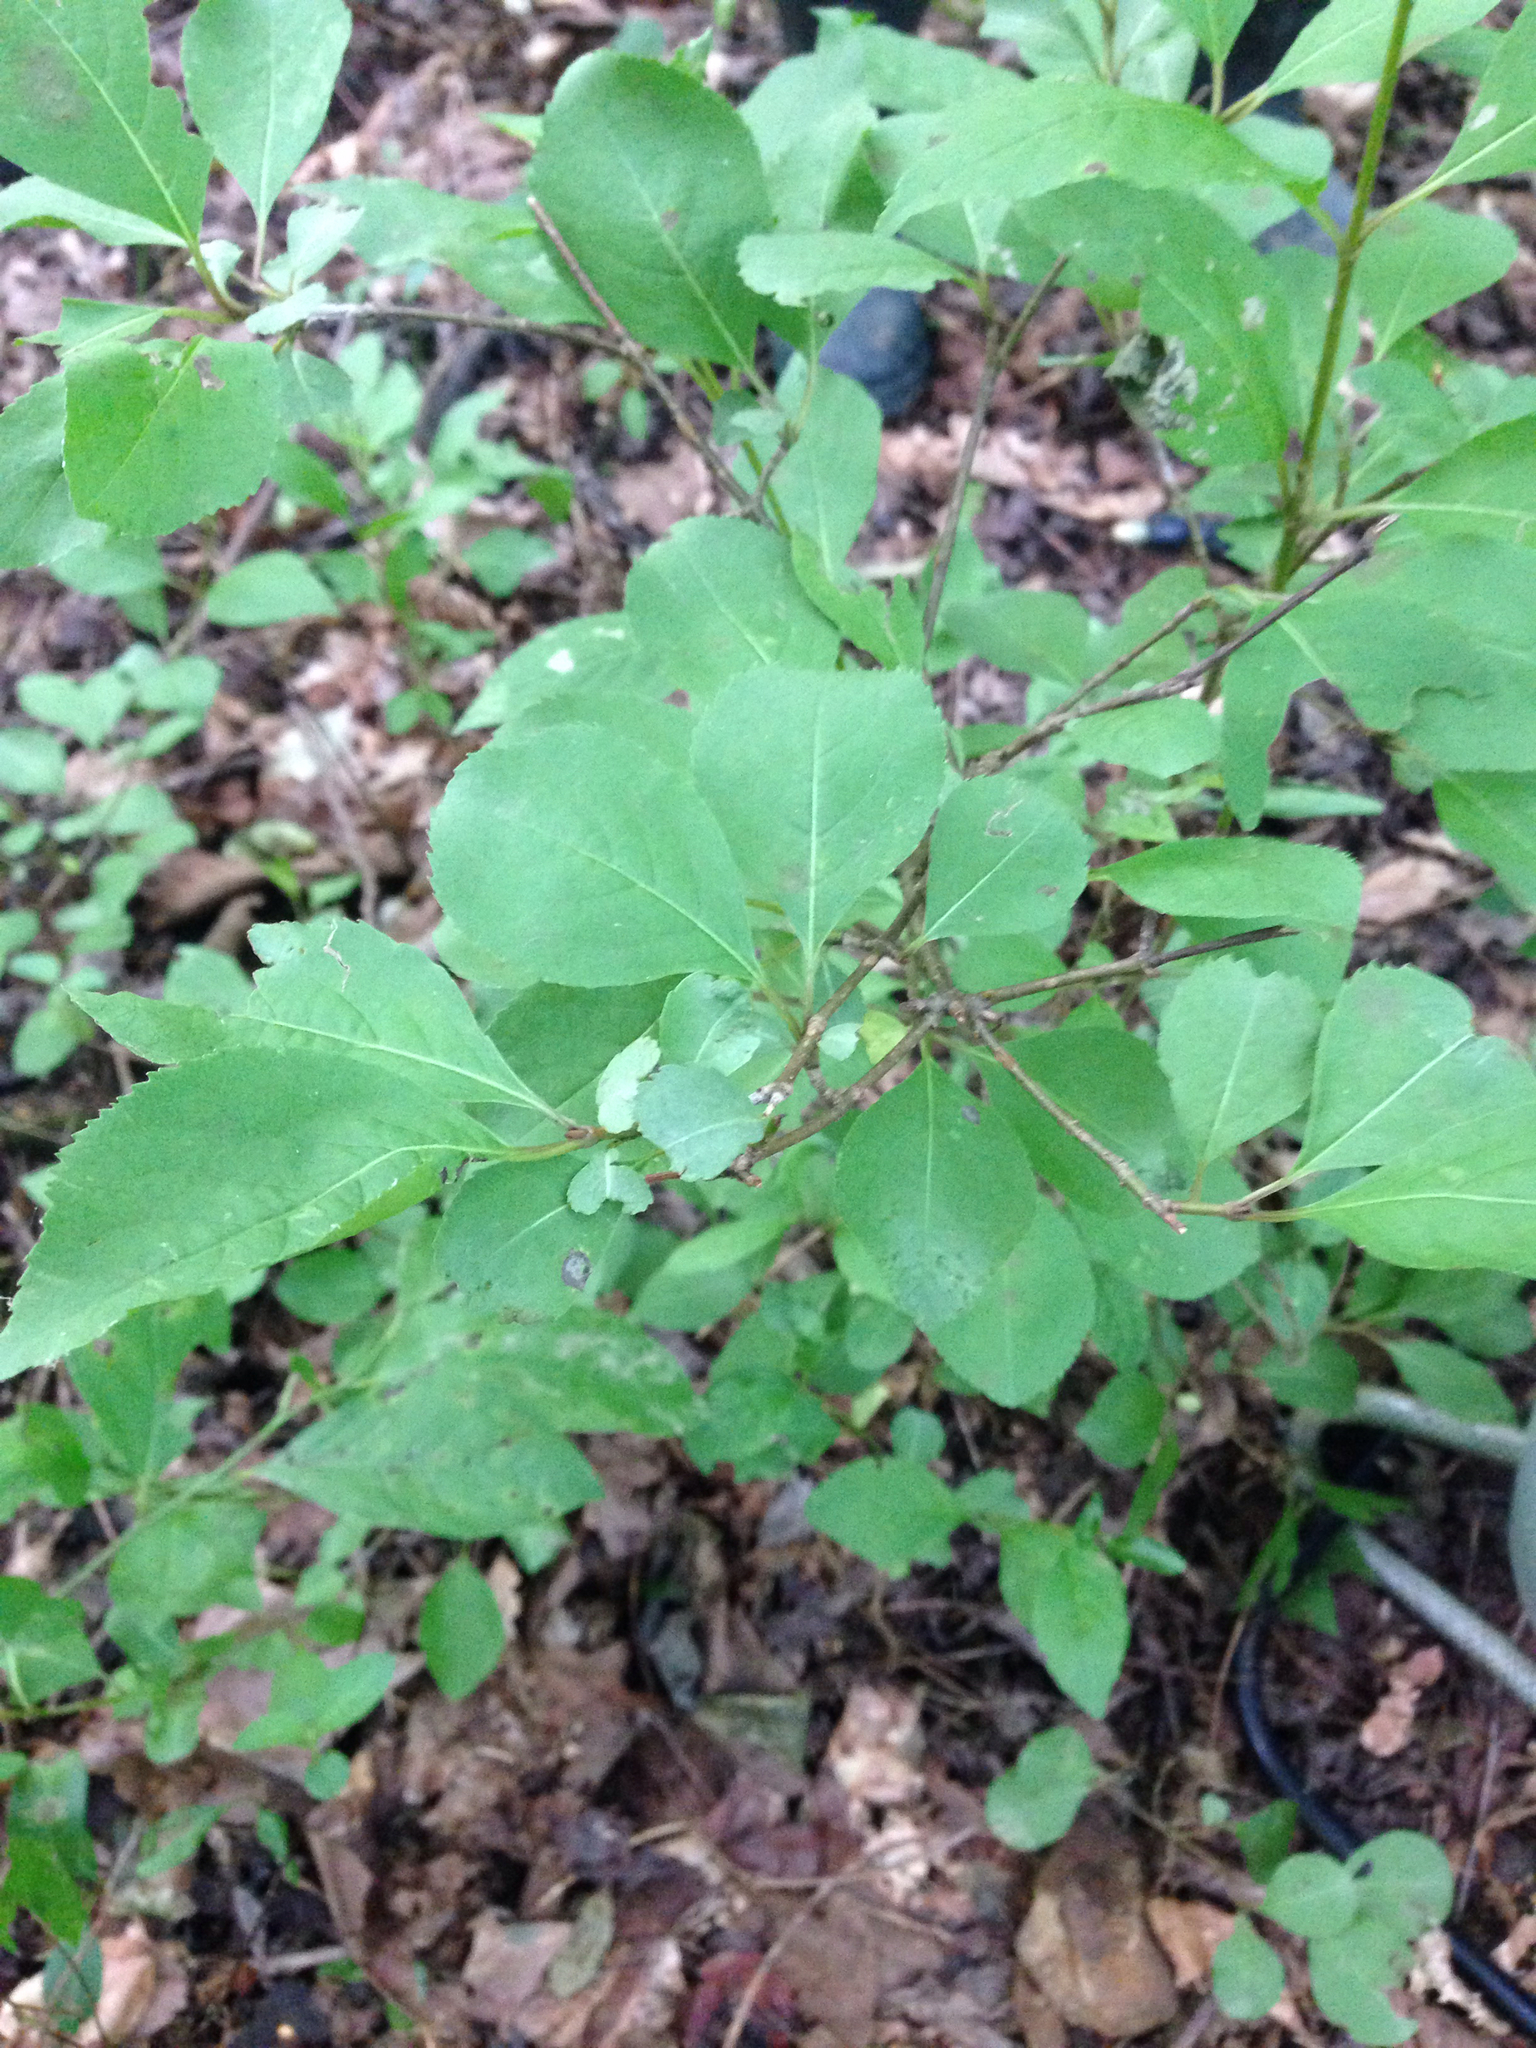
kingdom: Plantae
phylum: Tracheophyta
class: Magnoliopsida
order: Dipsacales
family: Viburnaceae
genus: Viburnum
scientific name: Viburnum prunifolium
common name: Black haw
